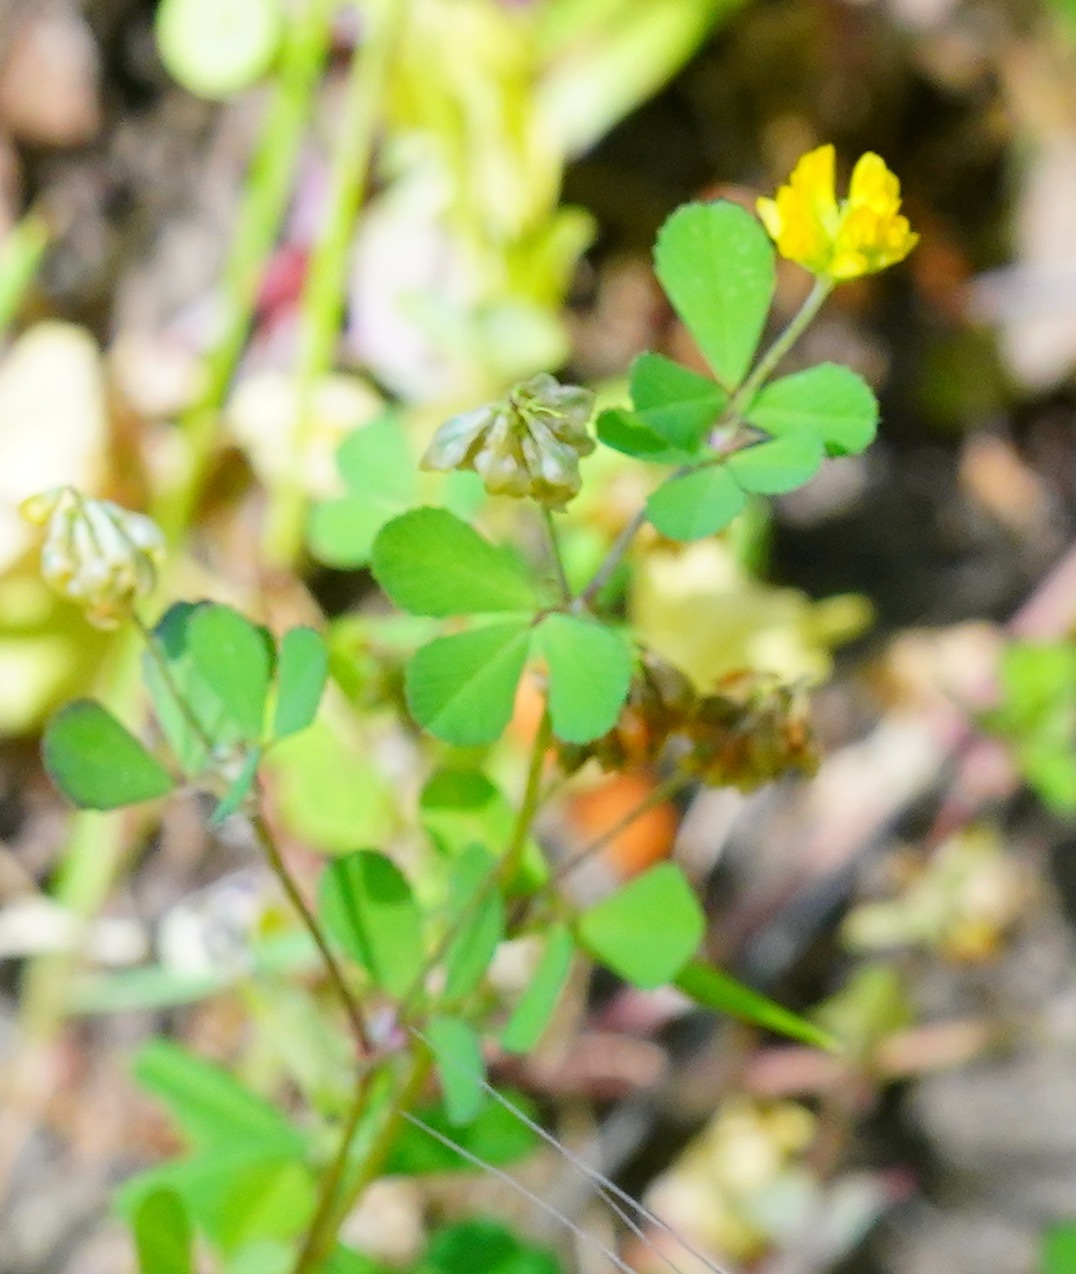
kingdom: Plantae
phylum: Tracheophyta
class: Magnoliopsida
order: Fabales
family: Fabaceae
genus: Trifolium
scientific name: Trifolium dubium
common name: Suckling clover
